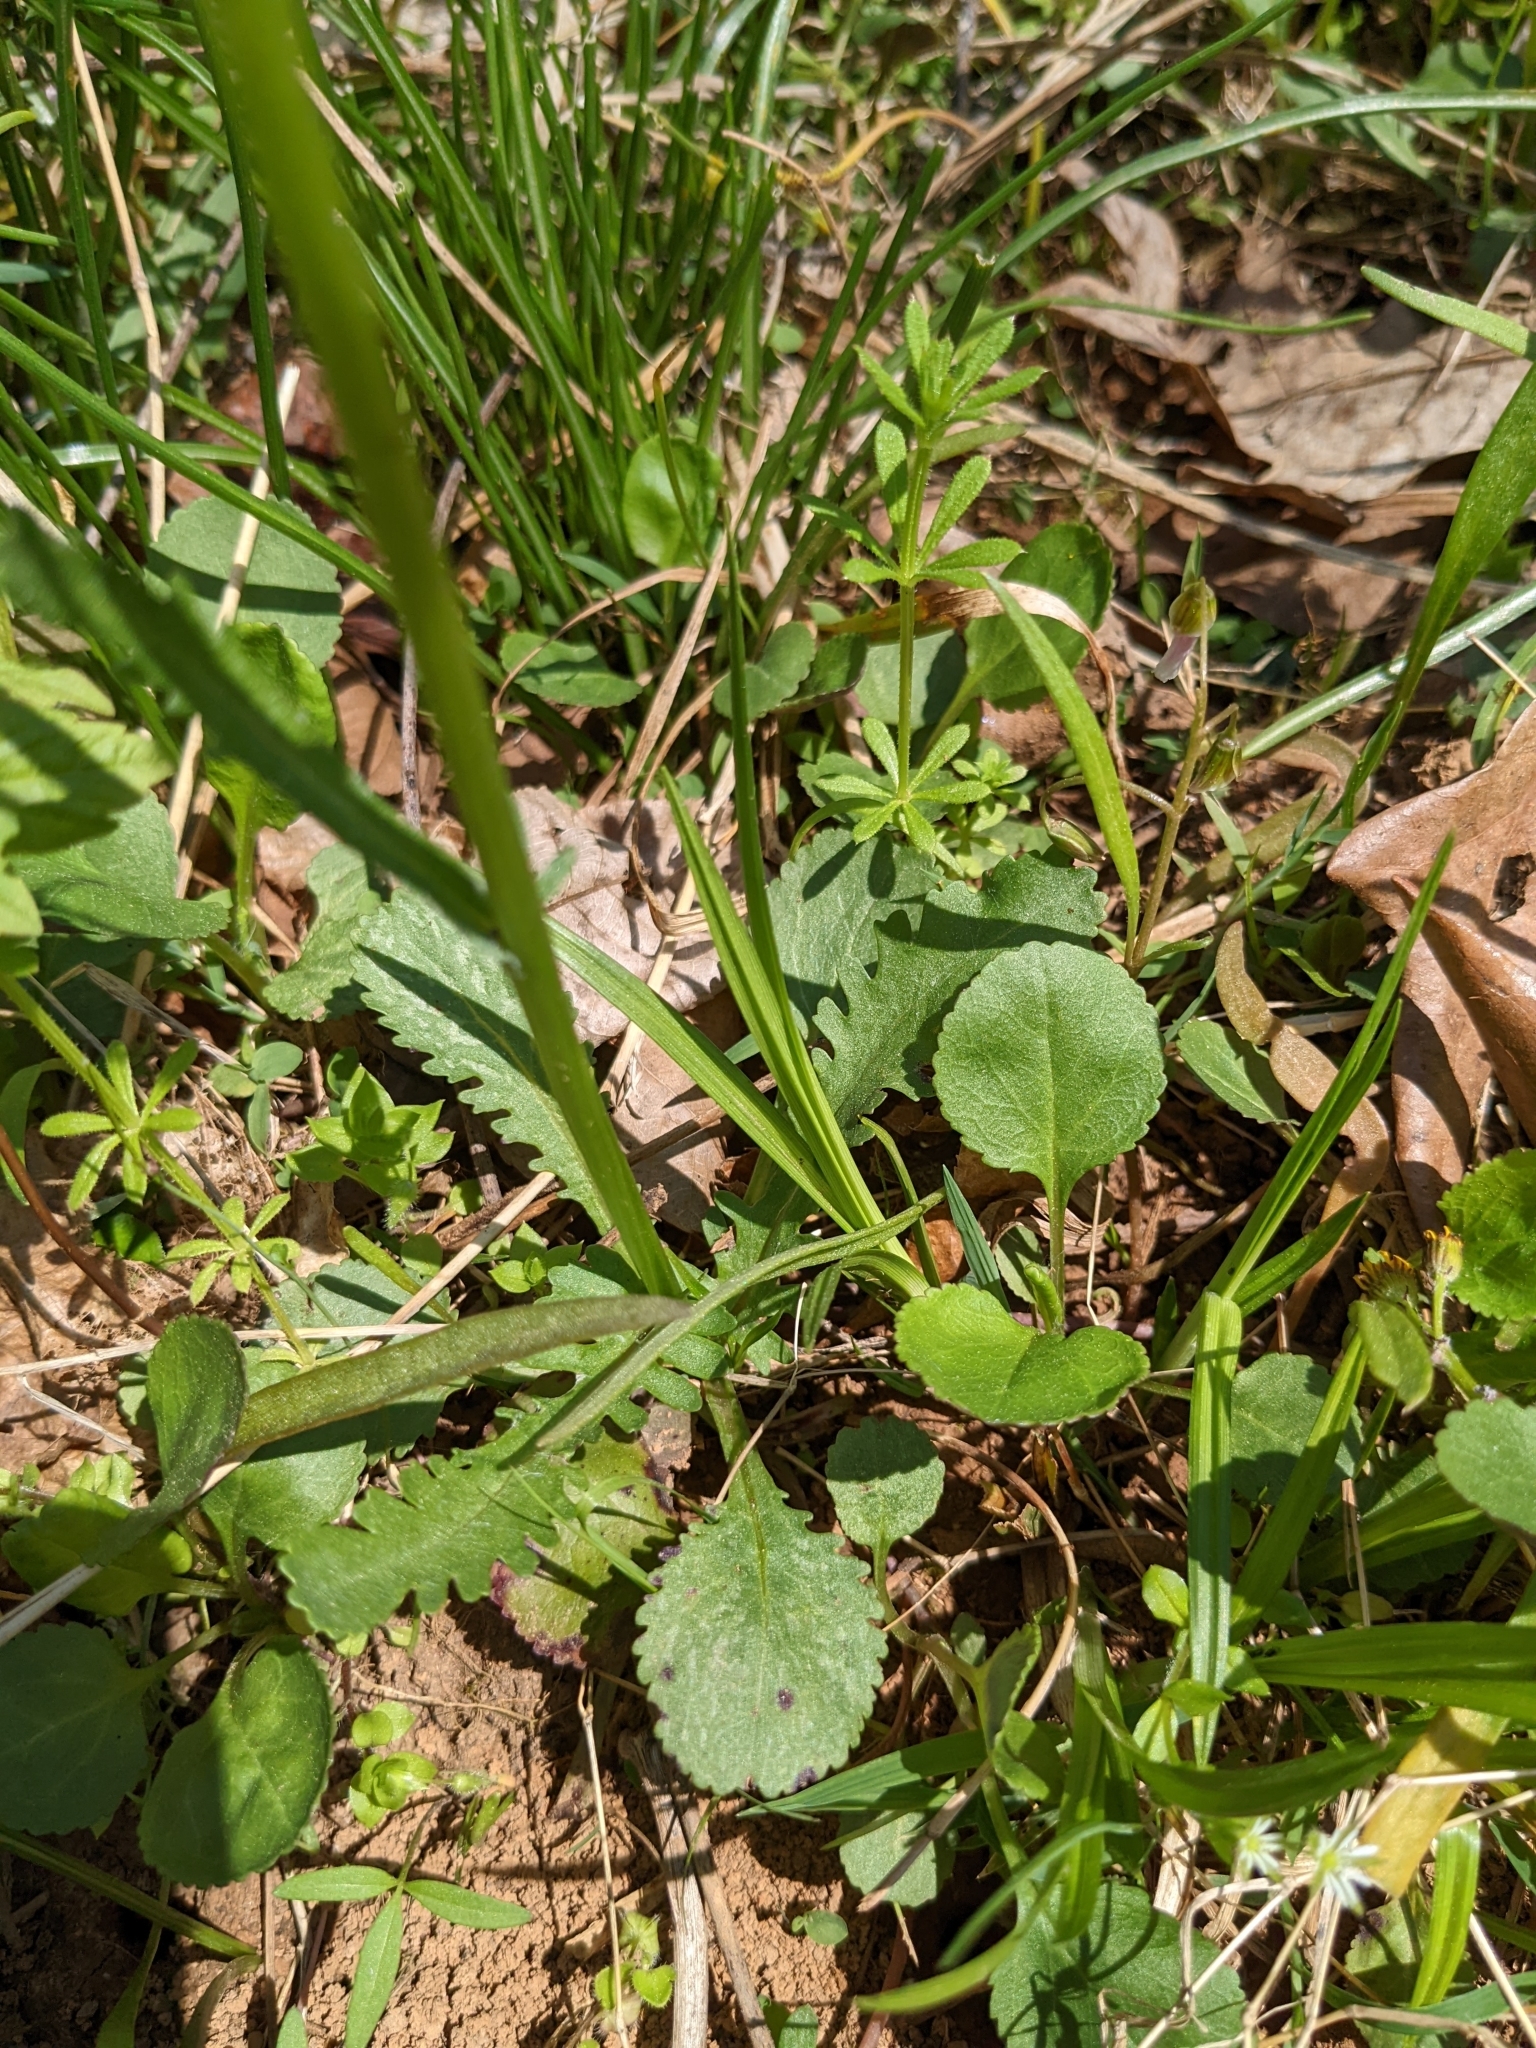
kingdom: Plantae
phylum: Tracheophyta
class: Magnoliopsida
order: Asterales
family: Asteraceae
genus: Packera
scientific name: Packera obovata
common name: Round-leaf ragwort
